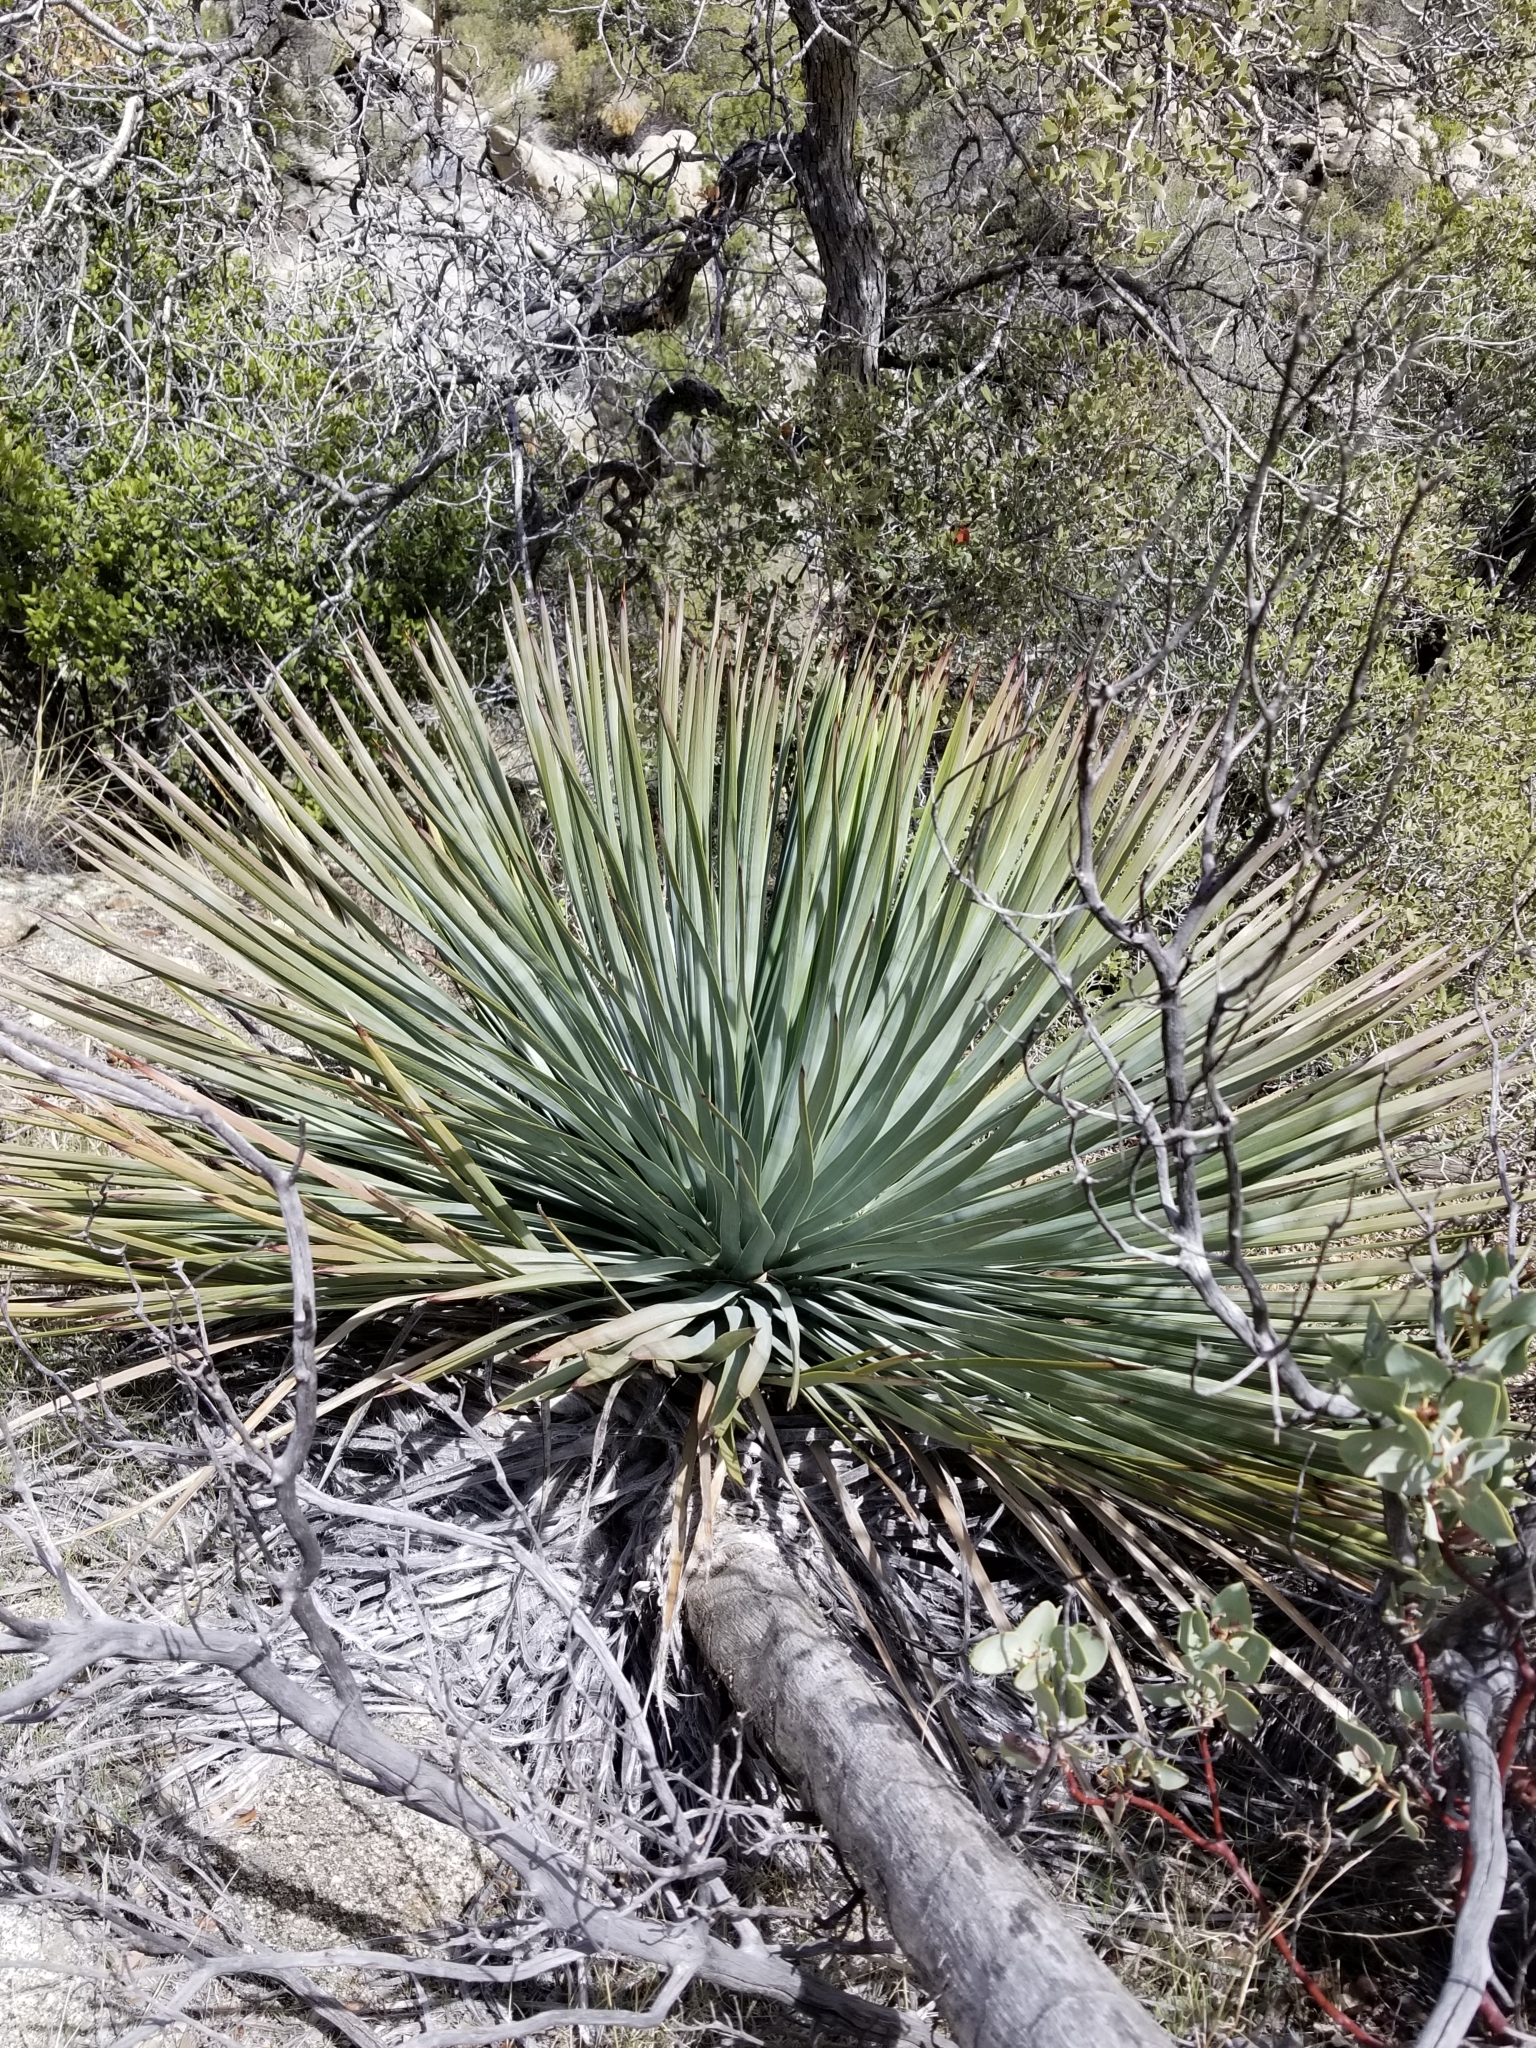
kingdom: Plantae
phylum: Tracheophyta
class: Liliopsida
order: Asparagales
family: Asparagaceae
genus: Hesperoyucca
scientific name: Hesperoyucca whipplei
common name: Our lord's-candle
